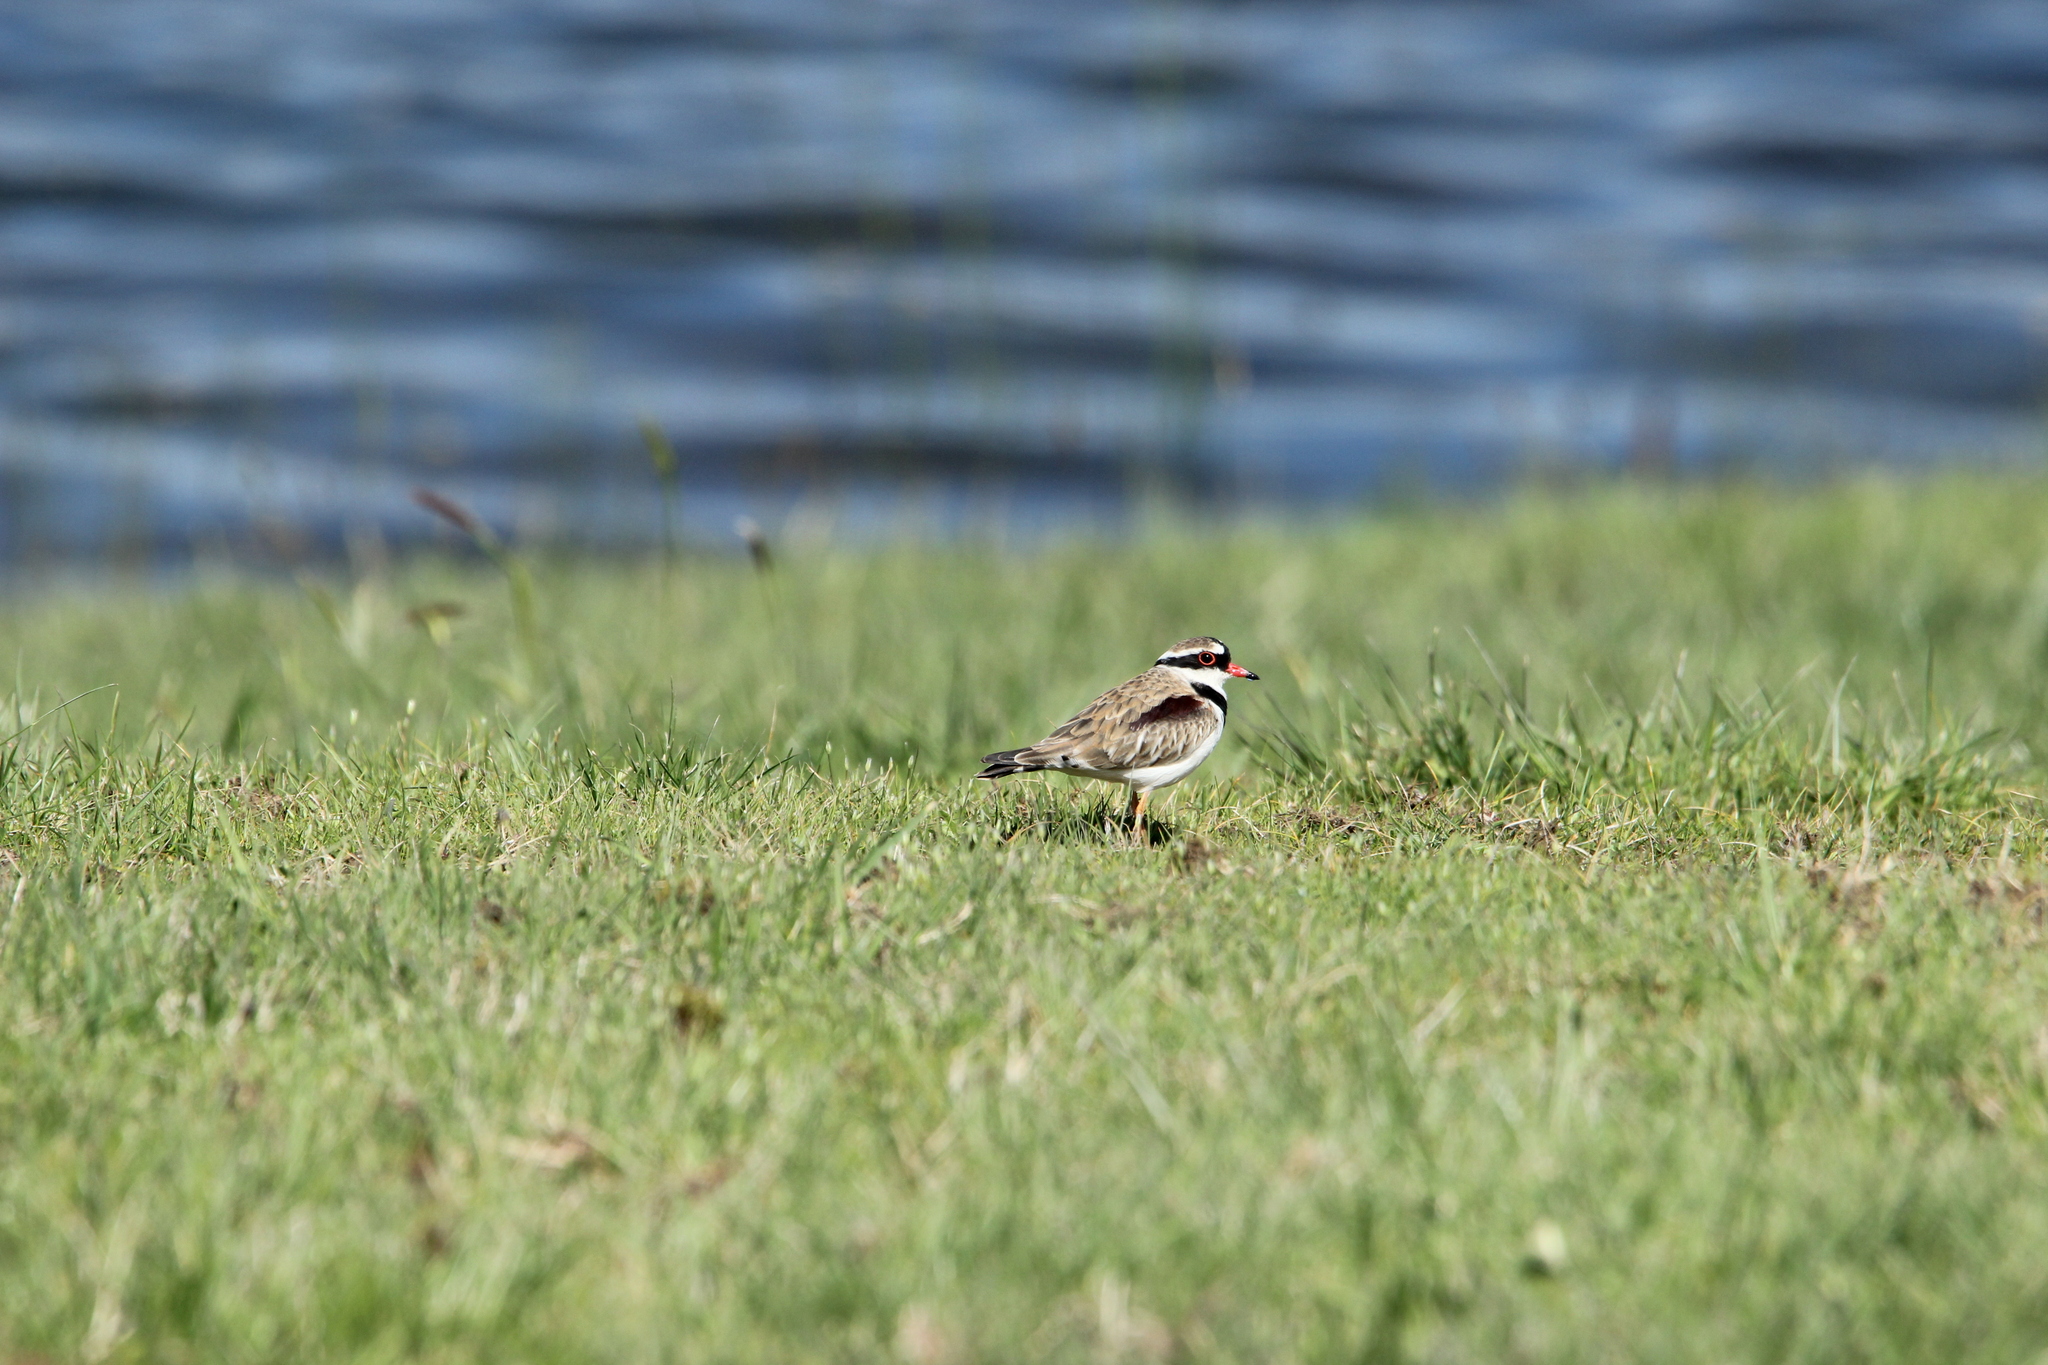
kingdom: Animalia
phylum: Chordata
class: Aves
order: Charadriiformes
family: Charadriidae
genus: Elseyornis
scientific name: Elseyornis melanops
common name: Black-fronted dotterel
